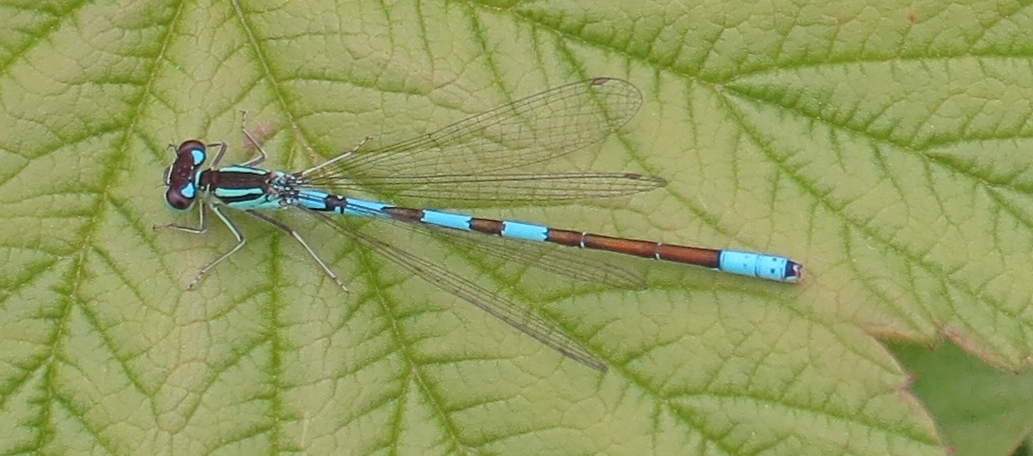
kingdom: Animalia
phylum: Arthropoda
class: Insecta
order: Odonata
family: Coenagrionidae
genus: Coenagrion
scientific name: Coenagrion resolutum
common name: Taiga bluet
